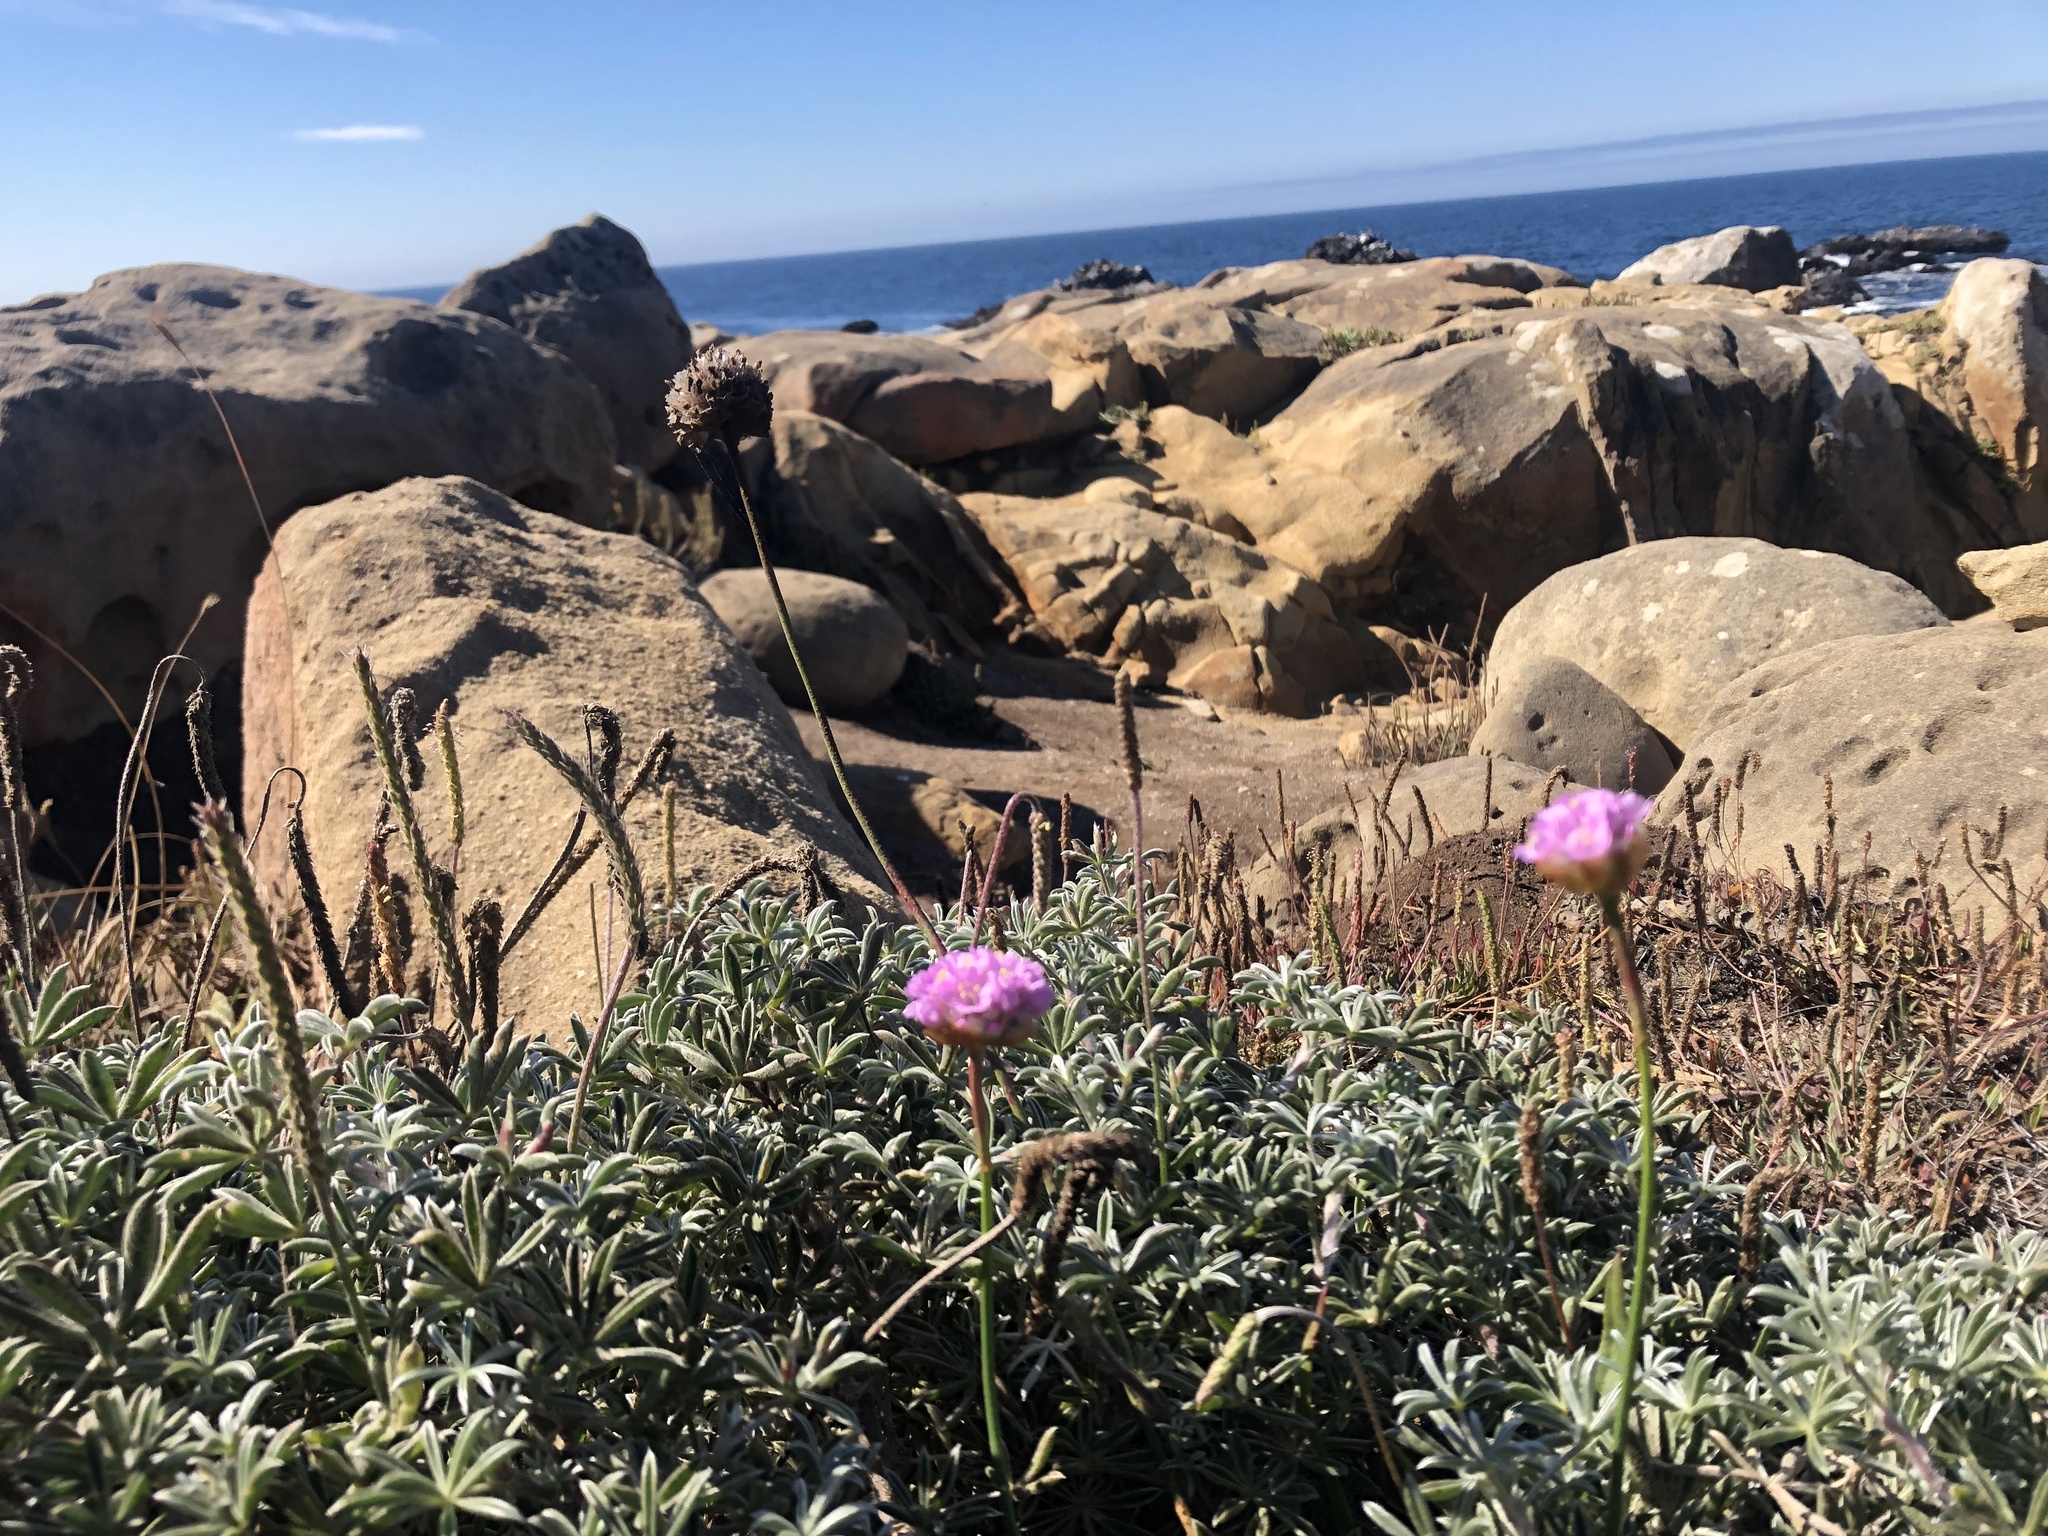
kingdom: Plantae
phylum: Tracheophyta
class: Magnoliopsida
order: Caryophyllales
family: Plumbaginaceae
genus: Armeria
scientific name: Armeria maritima
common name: Thrift
